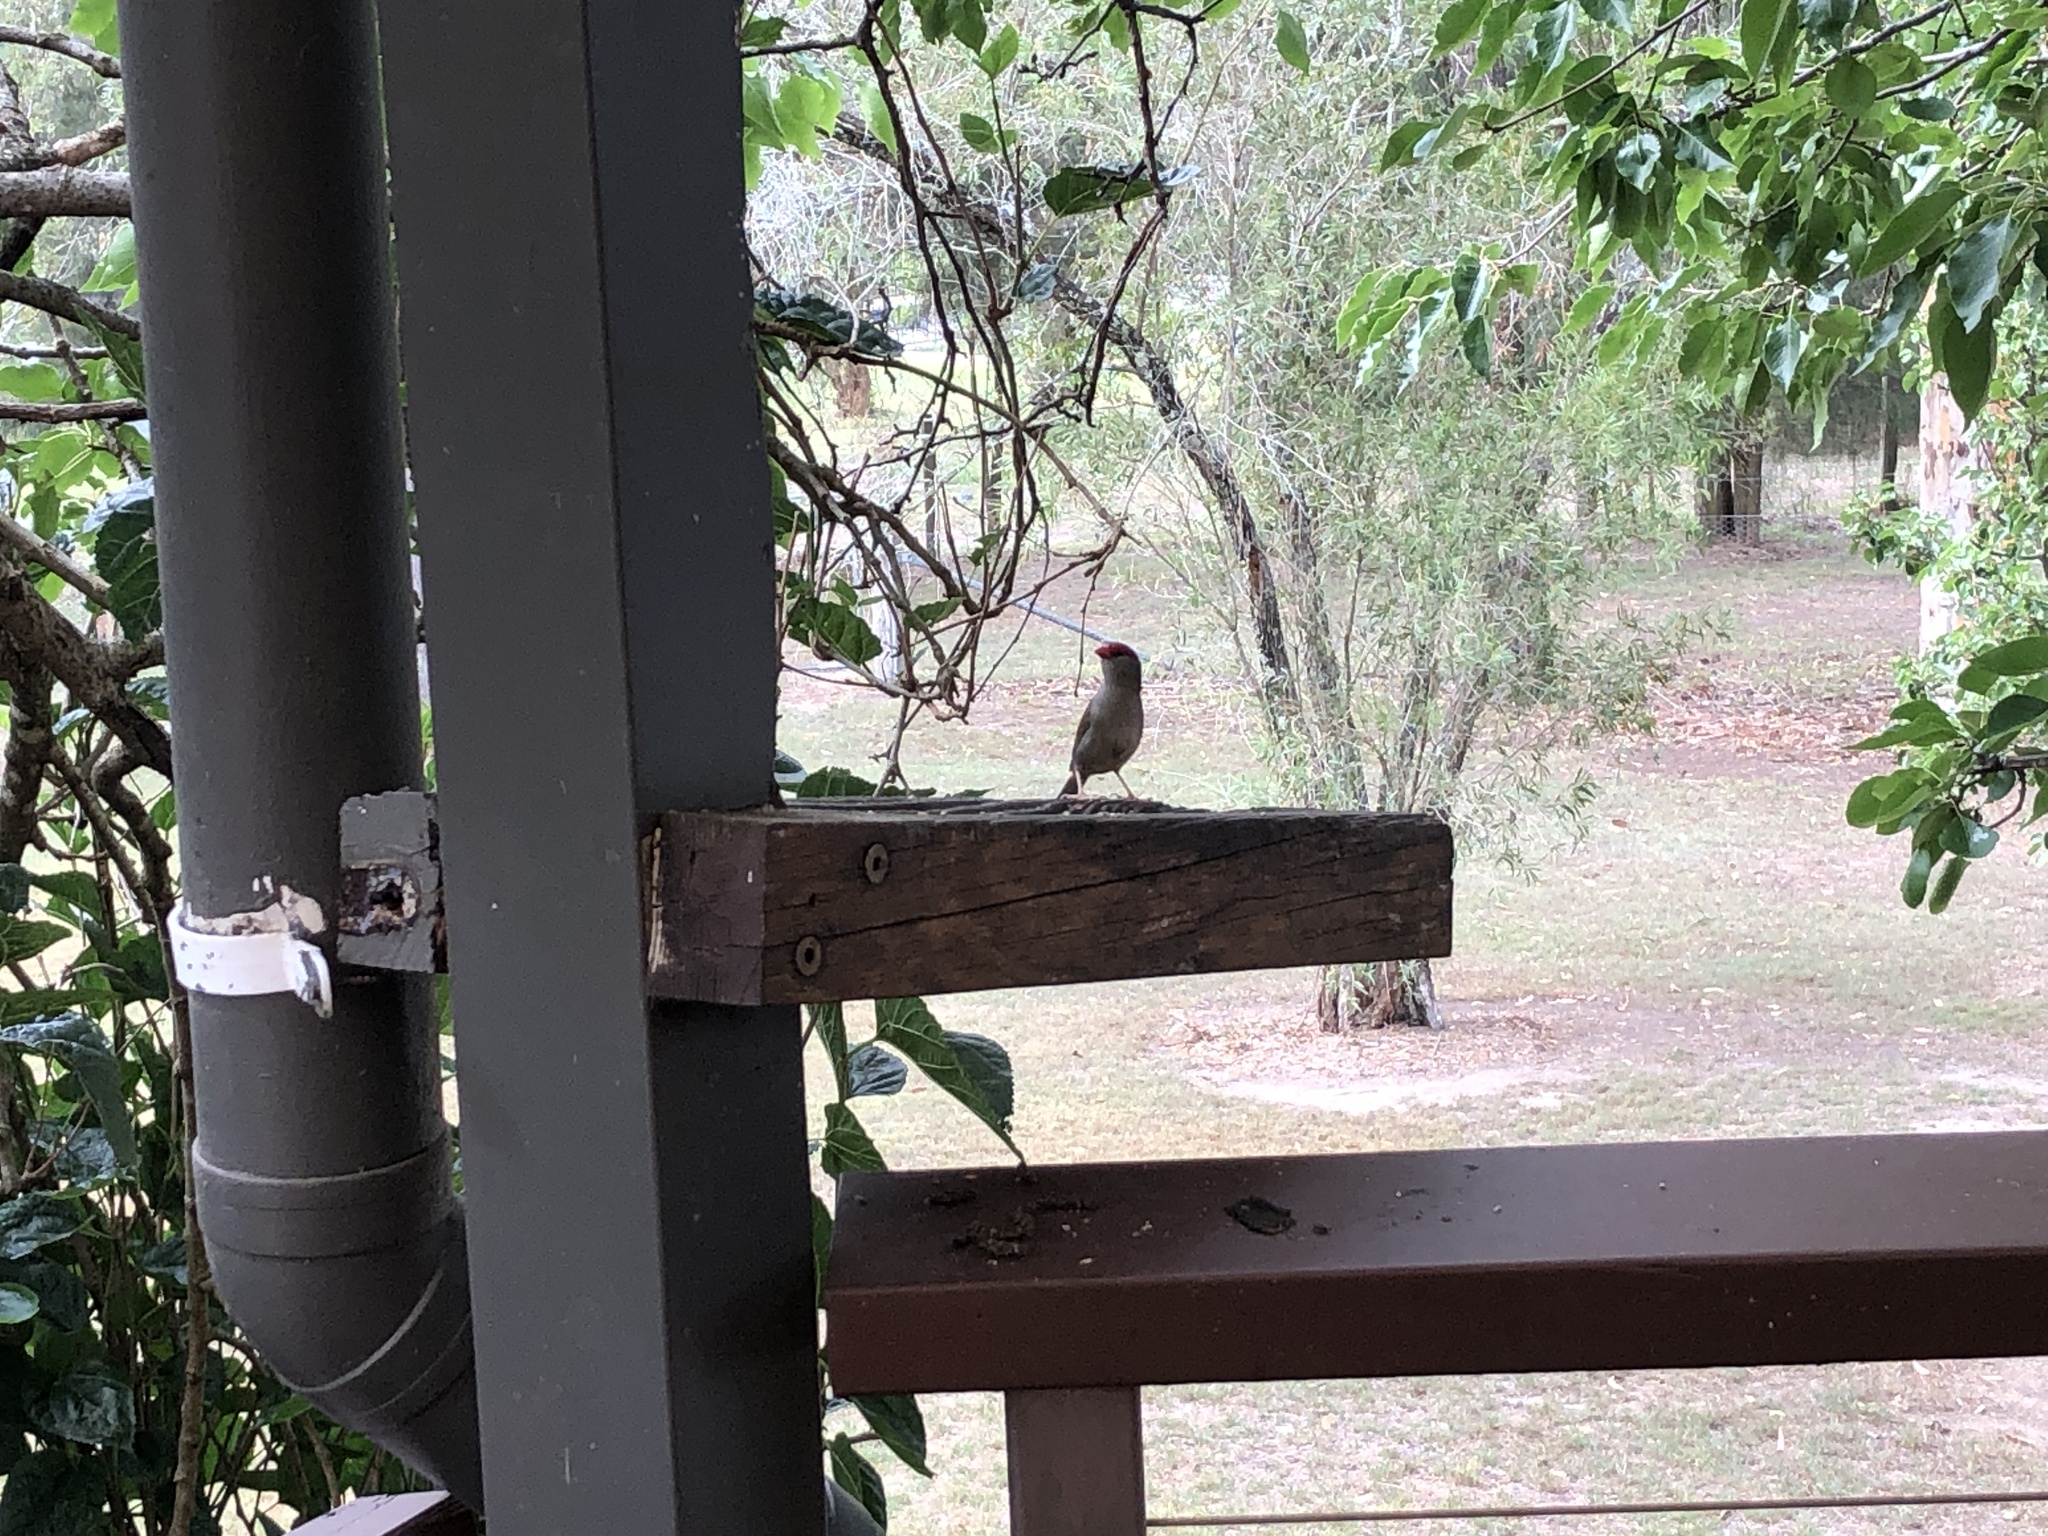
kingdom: Animalia
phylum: Chordata
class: Aves
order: Passeriformes
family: Estrildidae
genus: Neochmia
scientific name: Neochmia temporalis
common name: Red-browed finch
